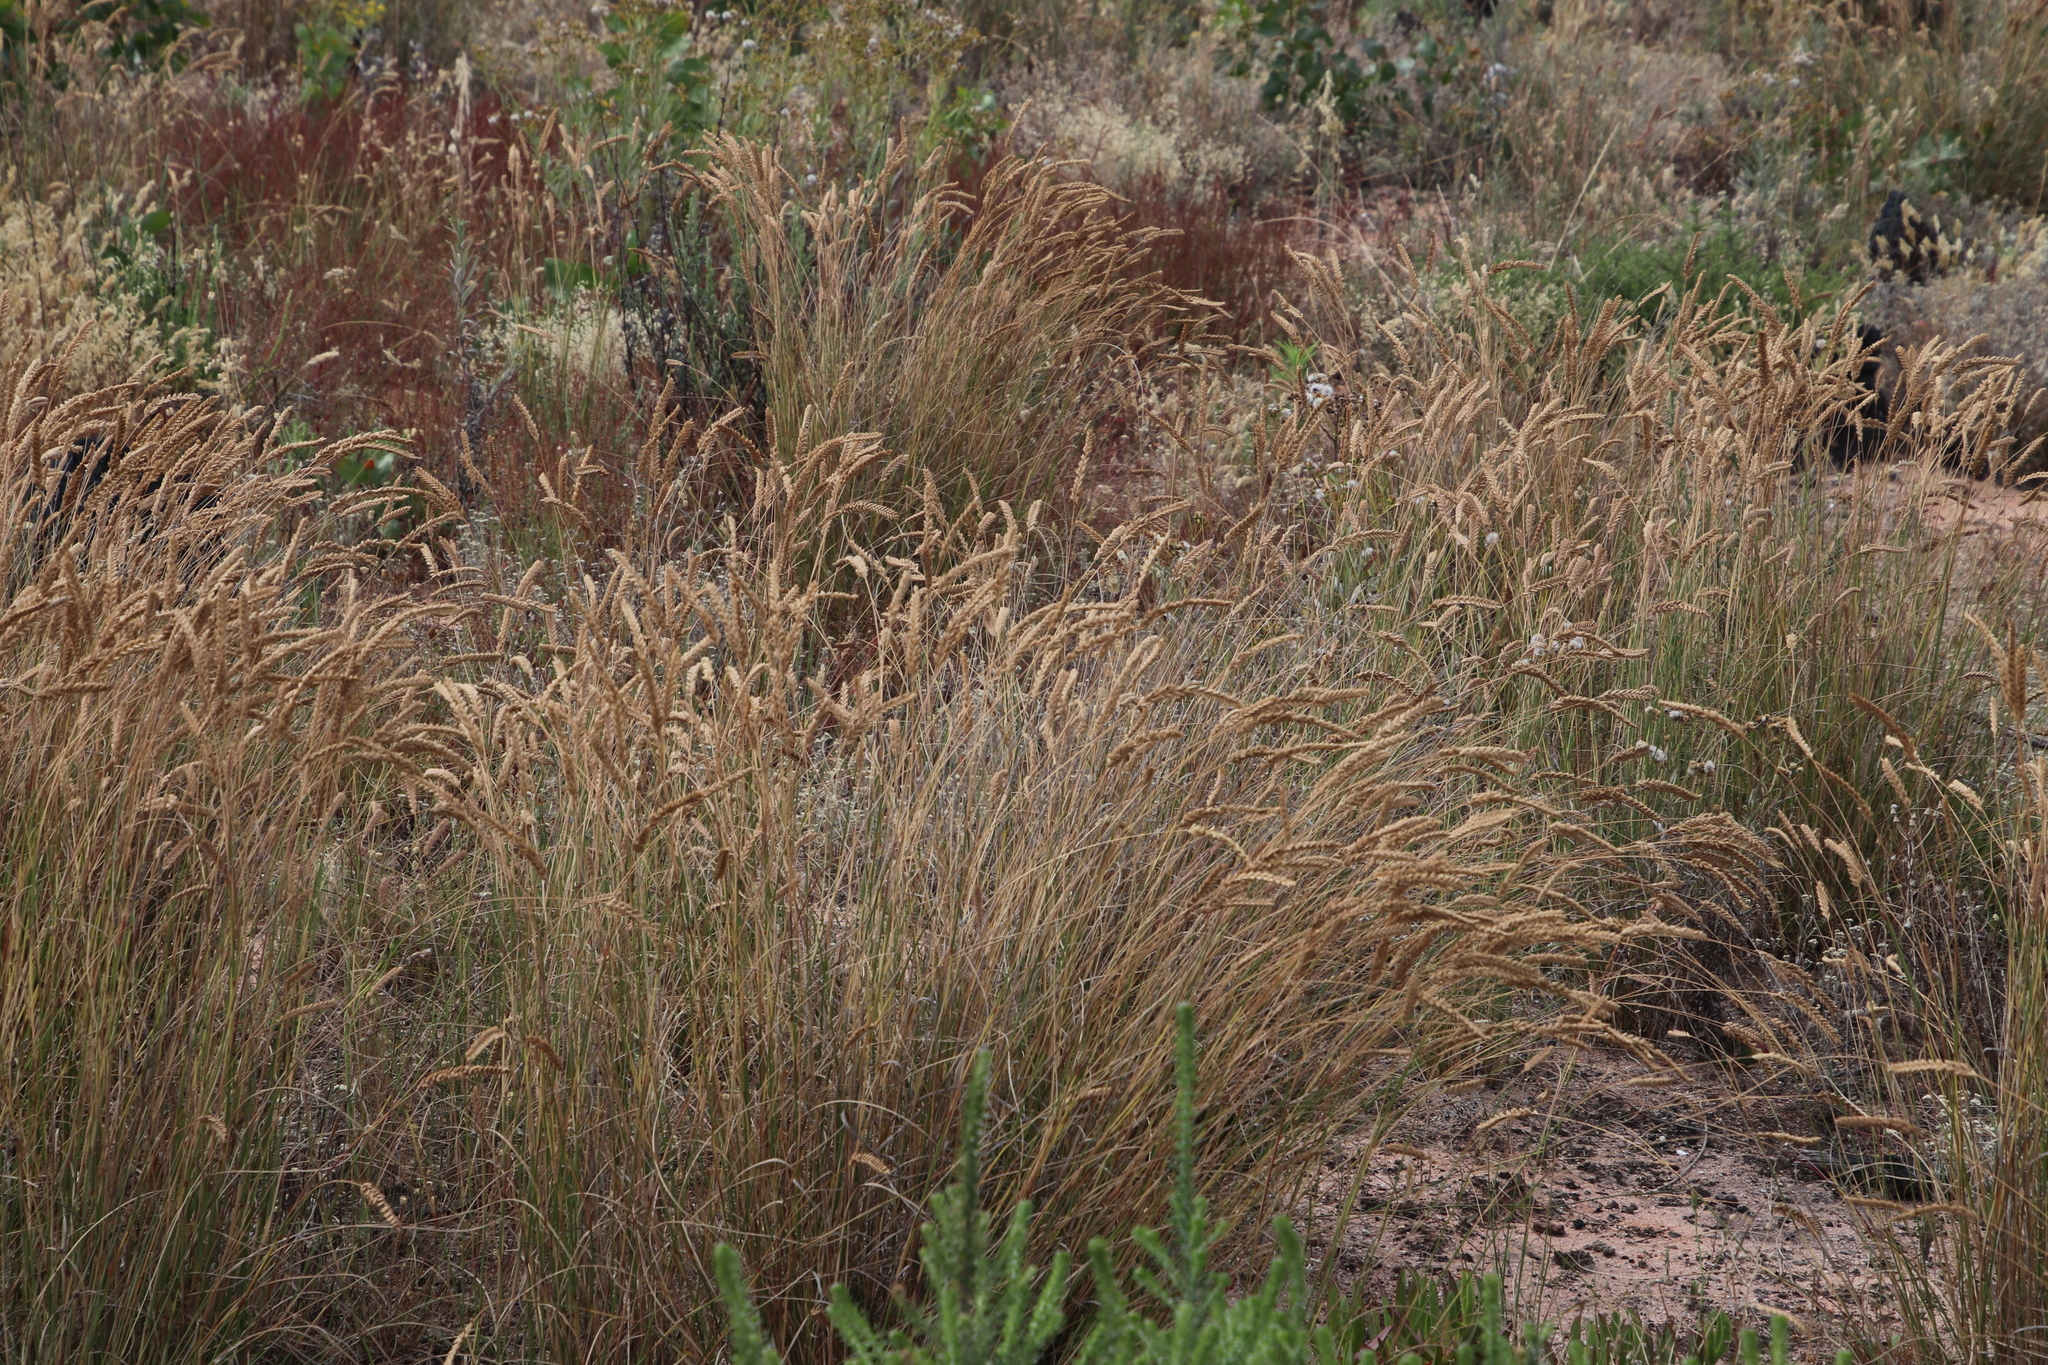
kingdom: Plantae
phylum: Tracheophyta
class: Liliopsida
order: Poales
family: Poaceae
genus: Tribolium
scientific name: Tribolium uniolae
